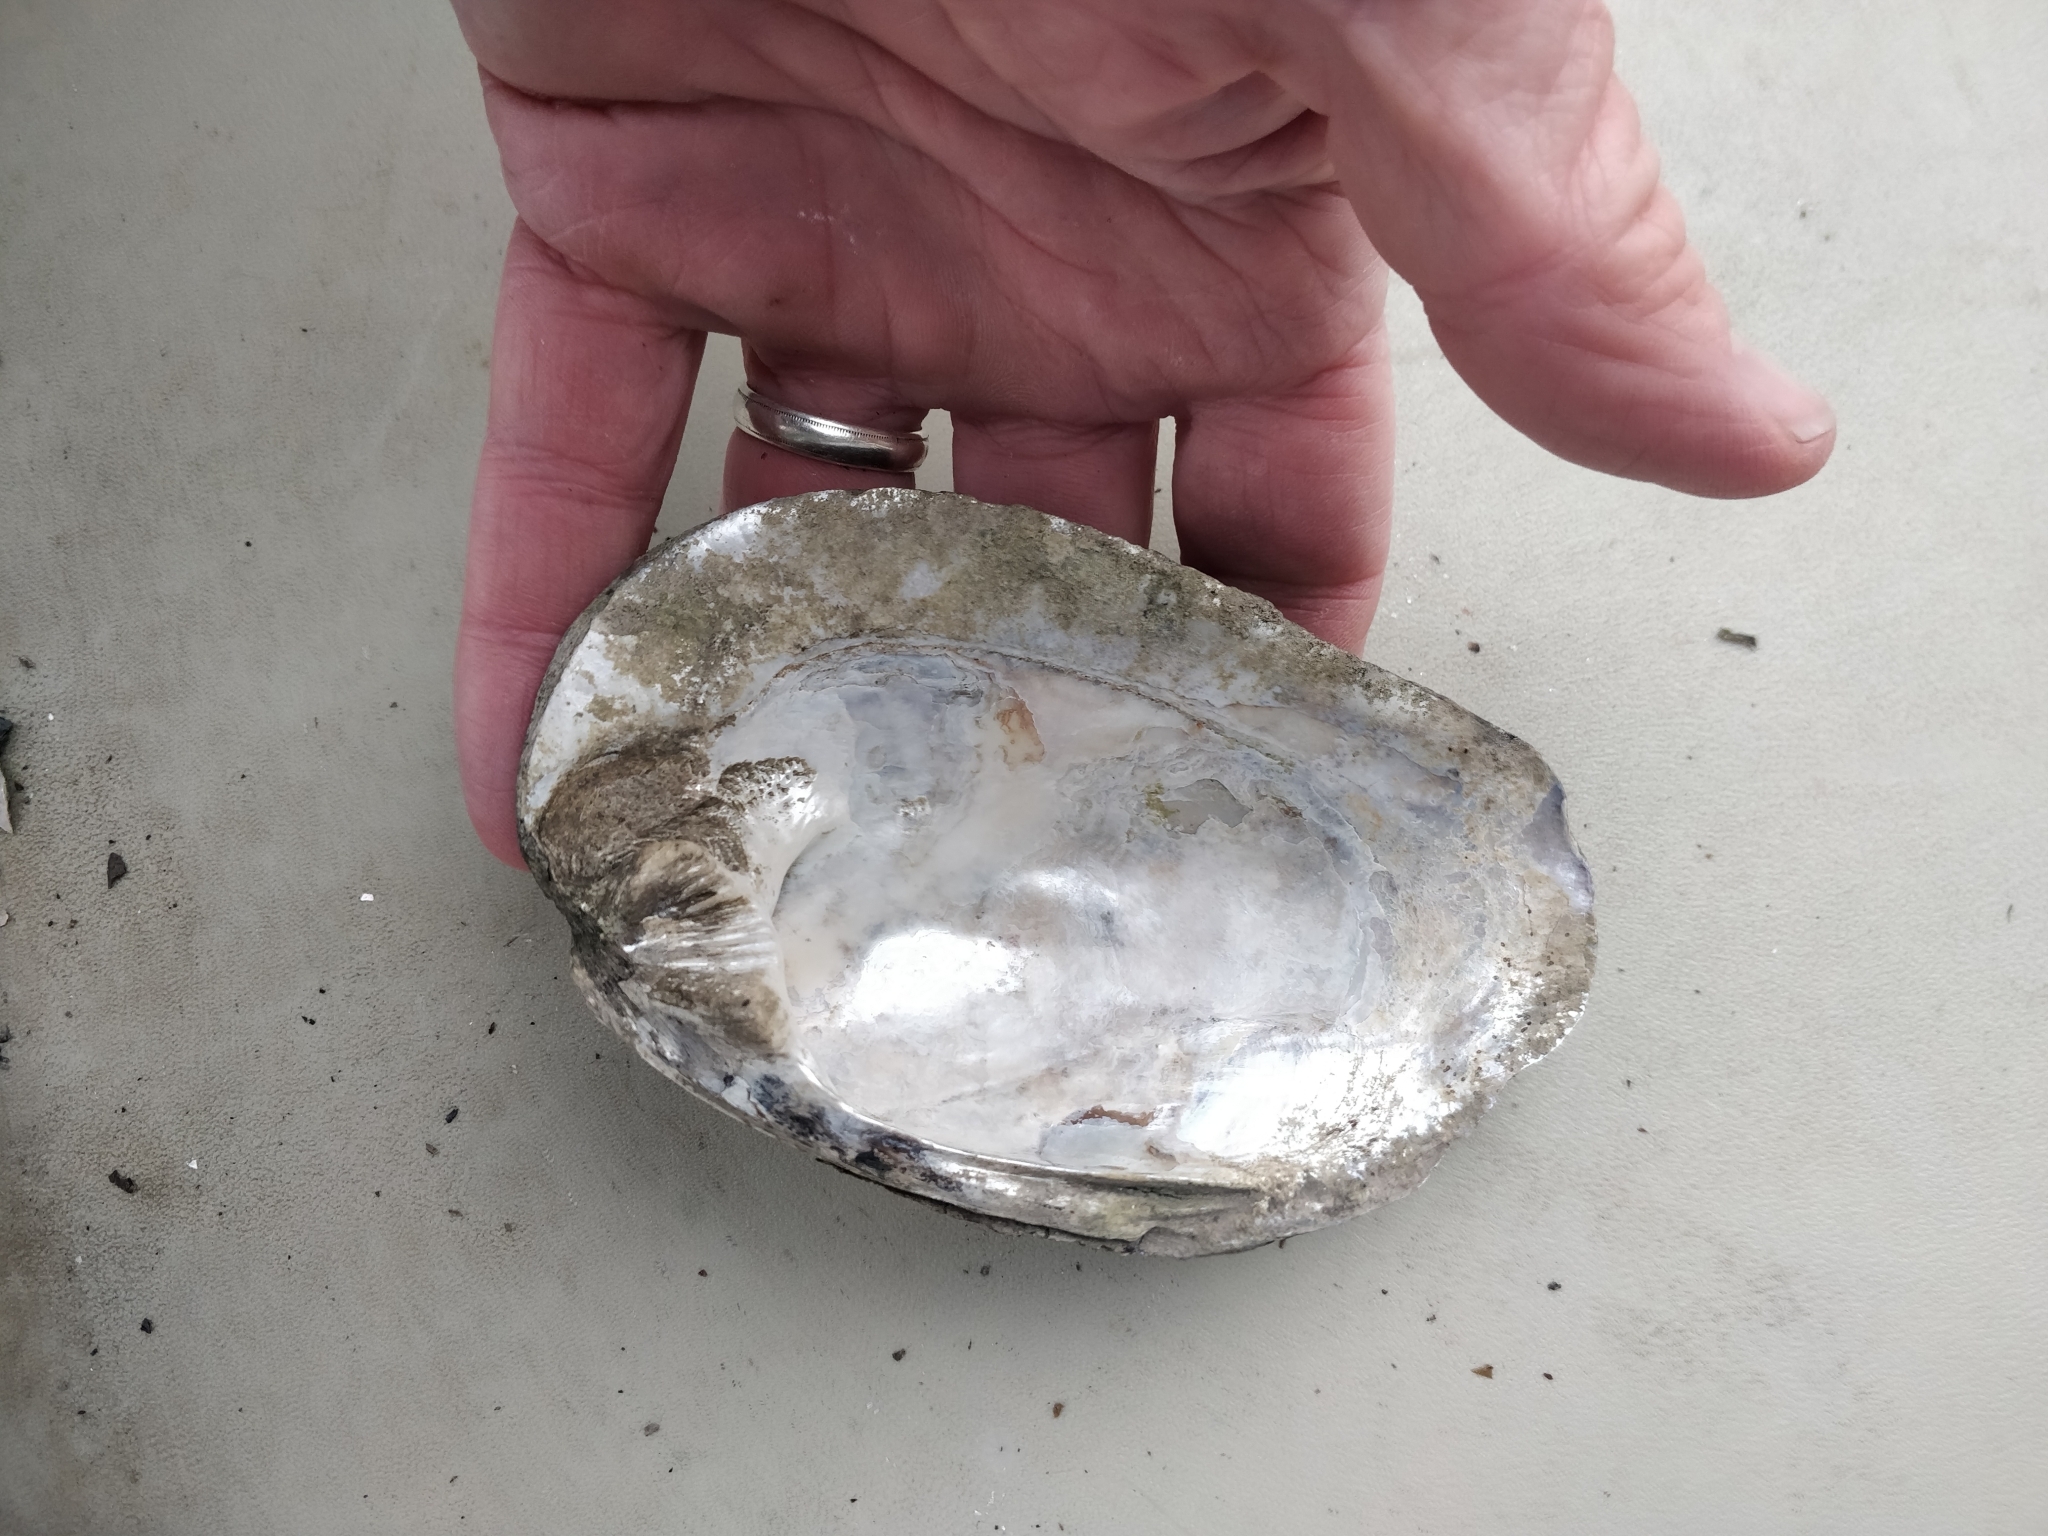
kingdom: Animalia
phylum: Mollusca
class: Bivalvia
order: Unionida
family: Unionidae
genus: Amblema
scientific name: Amblema plicata
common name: Threeridge
